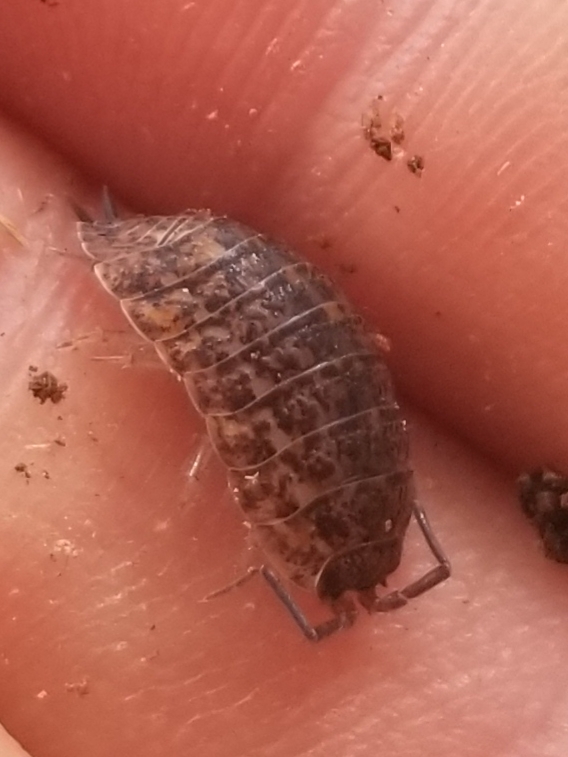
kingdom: Animalia
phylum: Arthropoda
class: Malacostraca
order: Isopoda
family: Trachelipodidae
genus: Trachelipus
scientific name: Trachelipus rathkii
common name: Isopod
